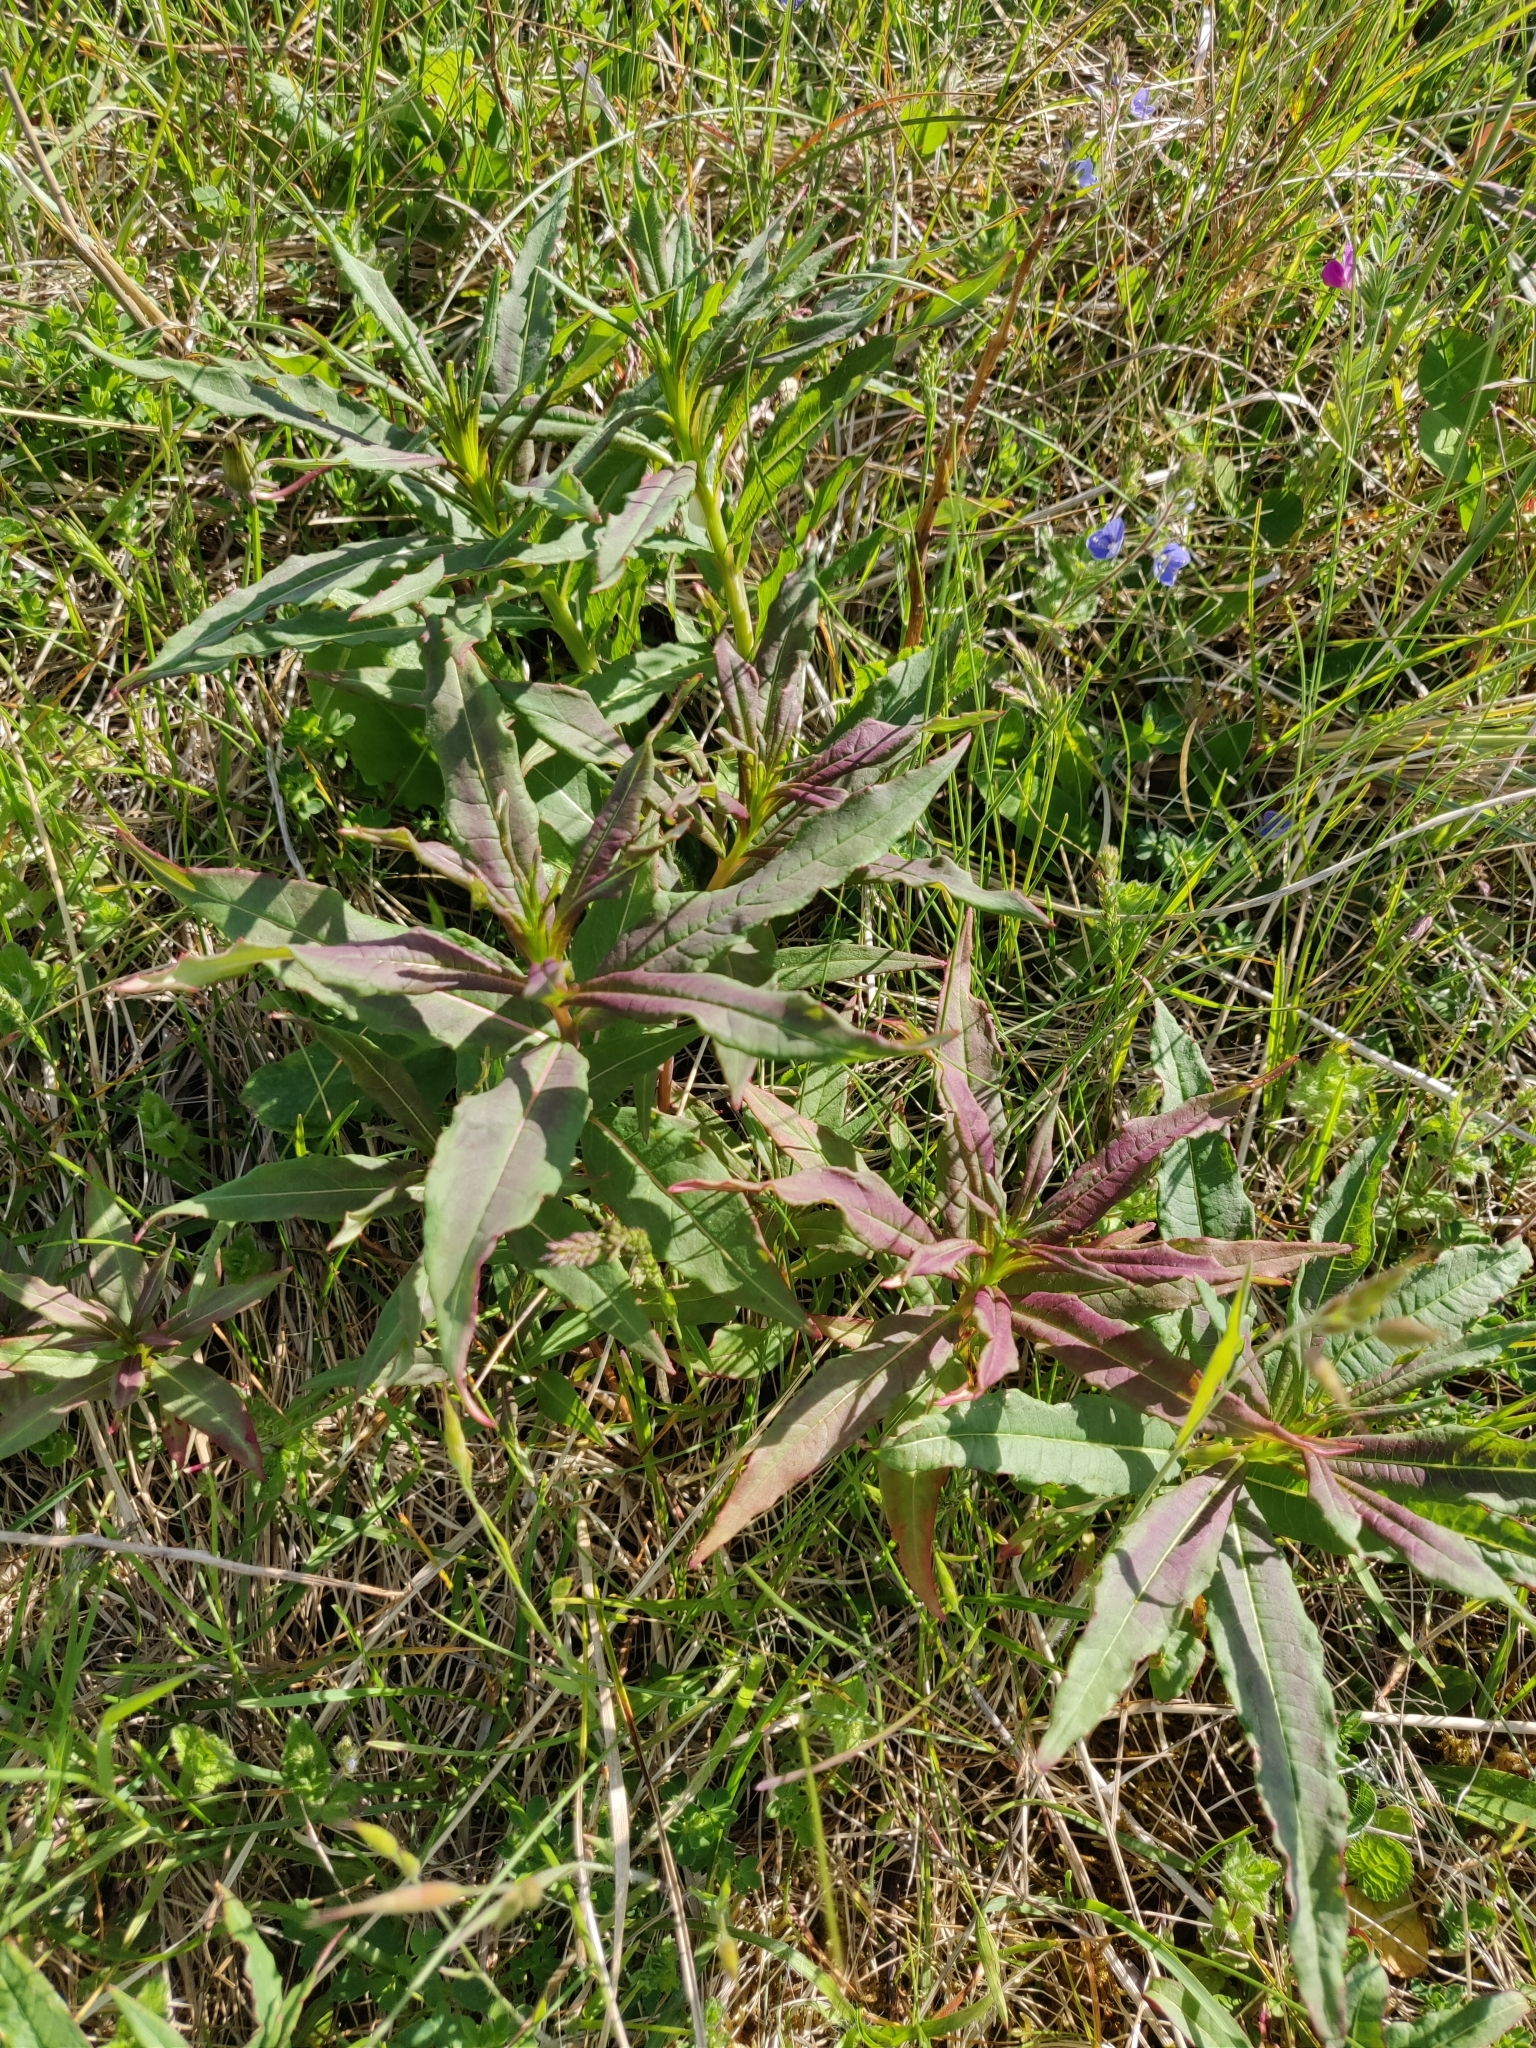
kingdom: Plantae
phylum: Tracheophyta
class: Magnoliopsida
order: Myrtales
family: Onagraceae
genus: Chamaenerion
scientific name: Chamaenerion angustifolium
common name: Fireweed
